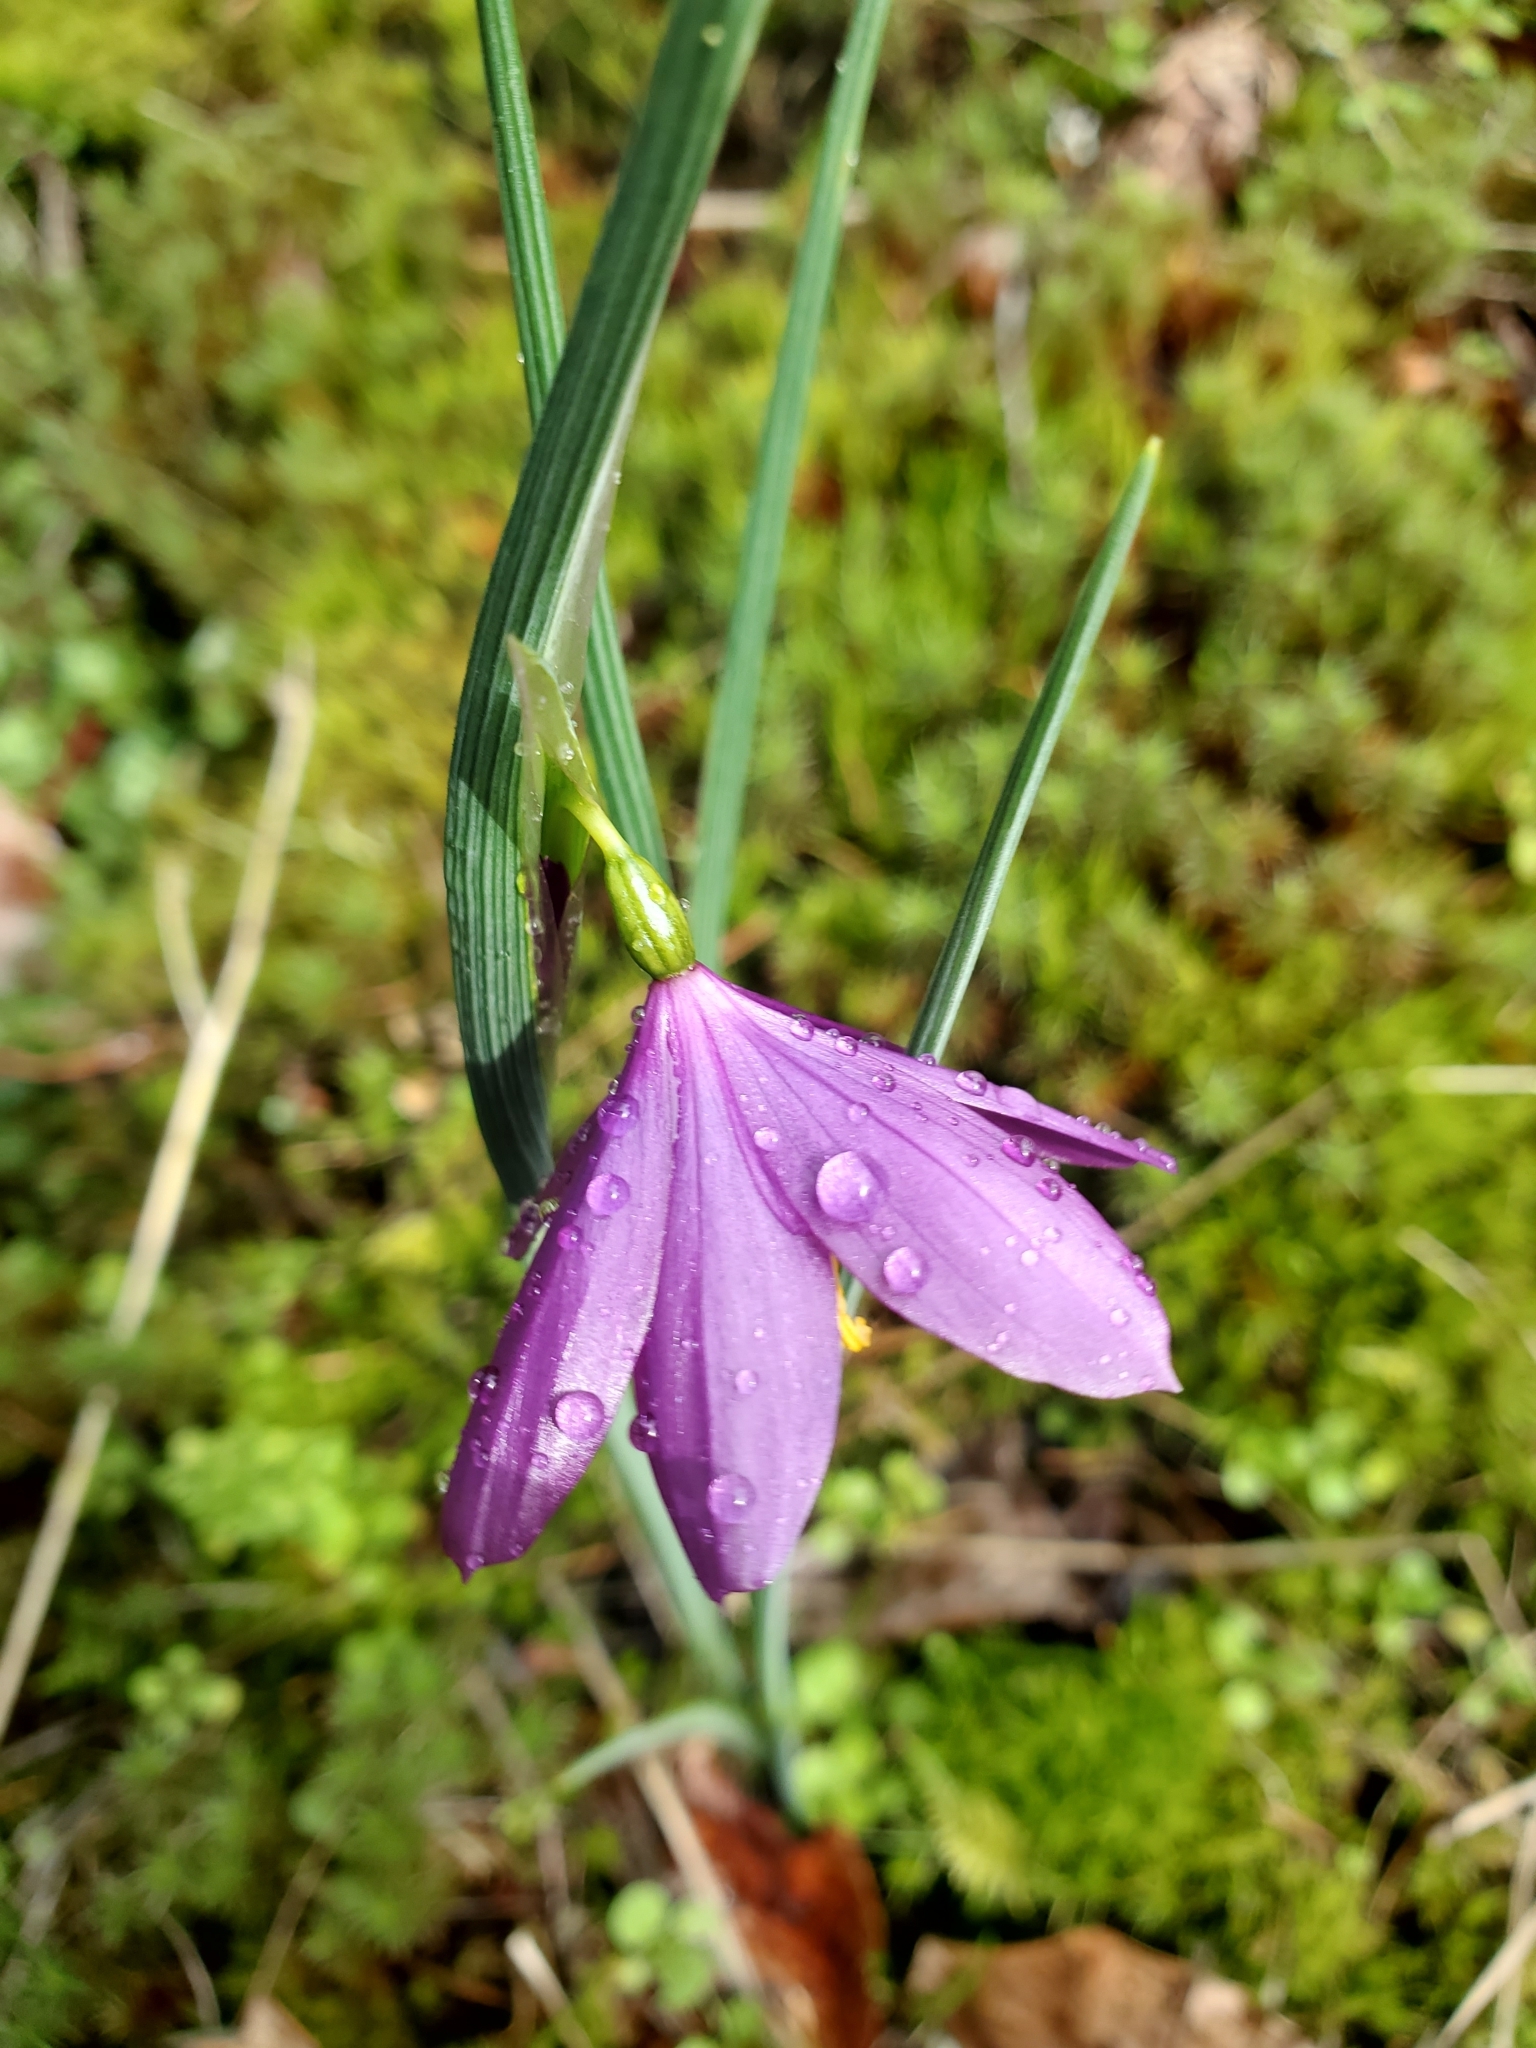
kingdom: Plantae
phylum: Tracheophyta
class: Liliopsida
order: Asparagales
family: Iridaceae
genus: Olsynium
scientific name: Olsynium douglasii
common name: Douglas' grasswidow
